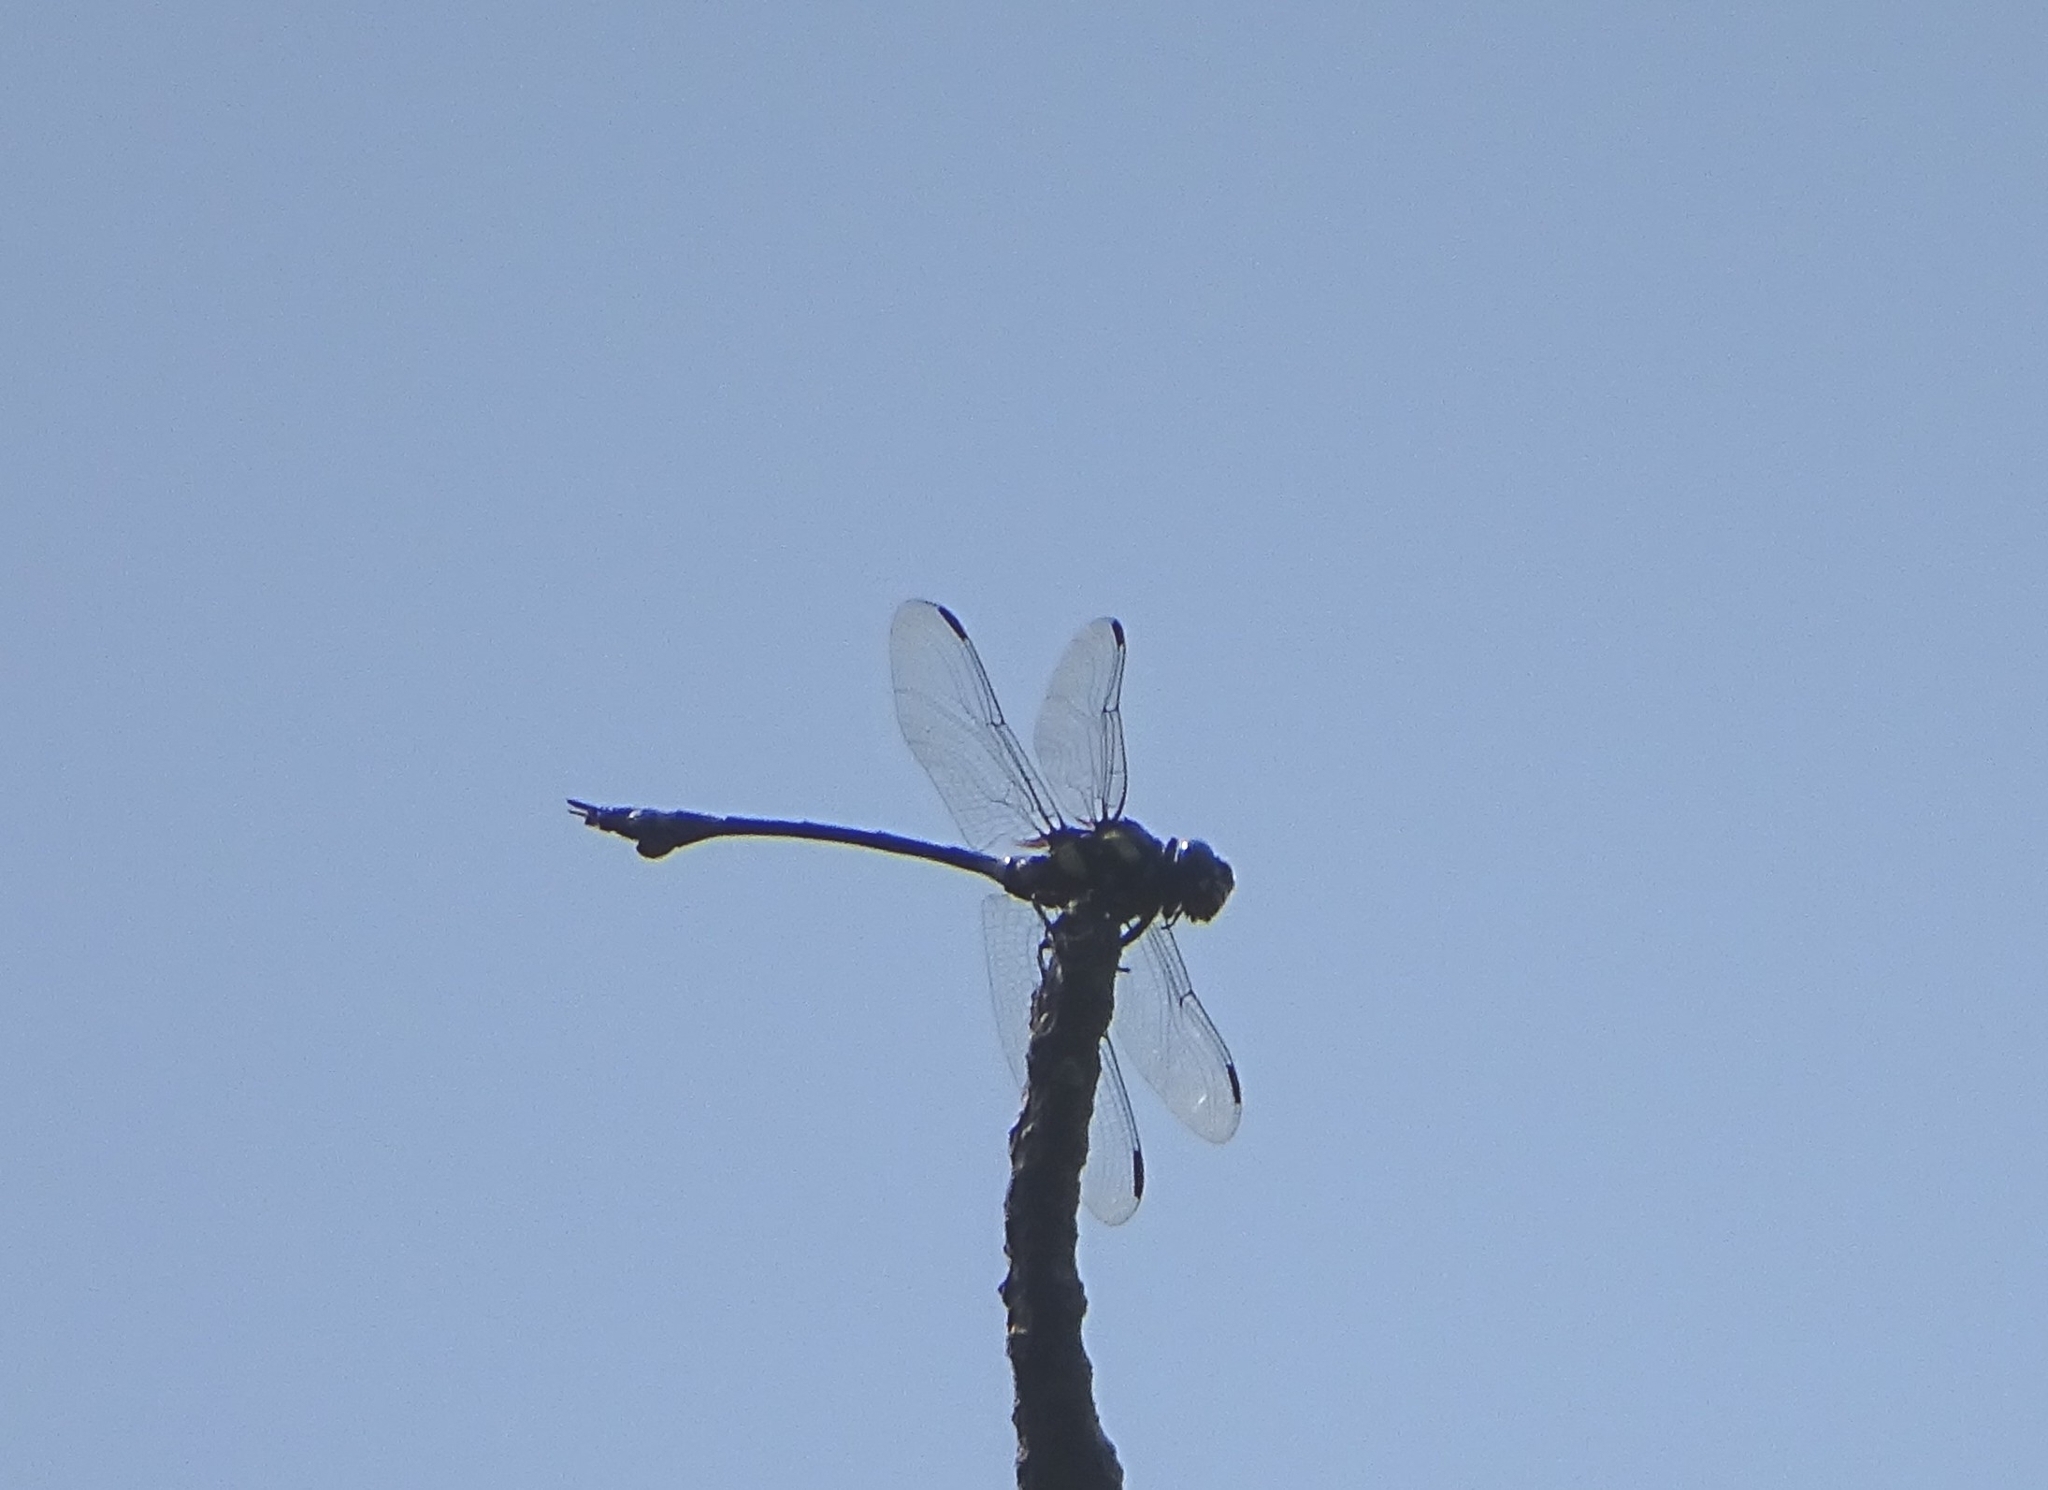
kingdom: Animalia
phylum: Arthropoda
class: Insecta
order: Odonata
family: Gomphidae
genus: Ictinogomphus
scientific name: Ictinogomphus rapax
